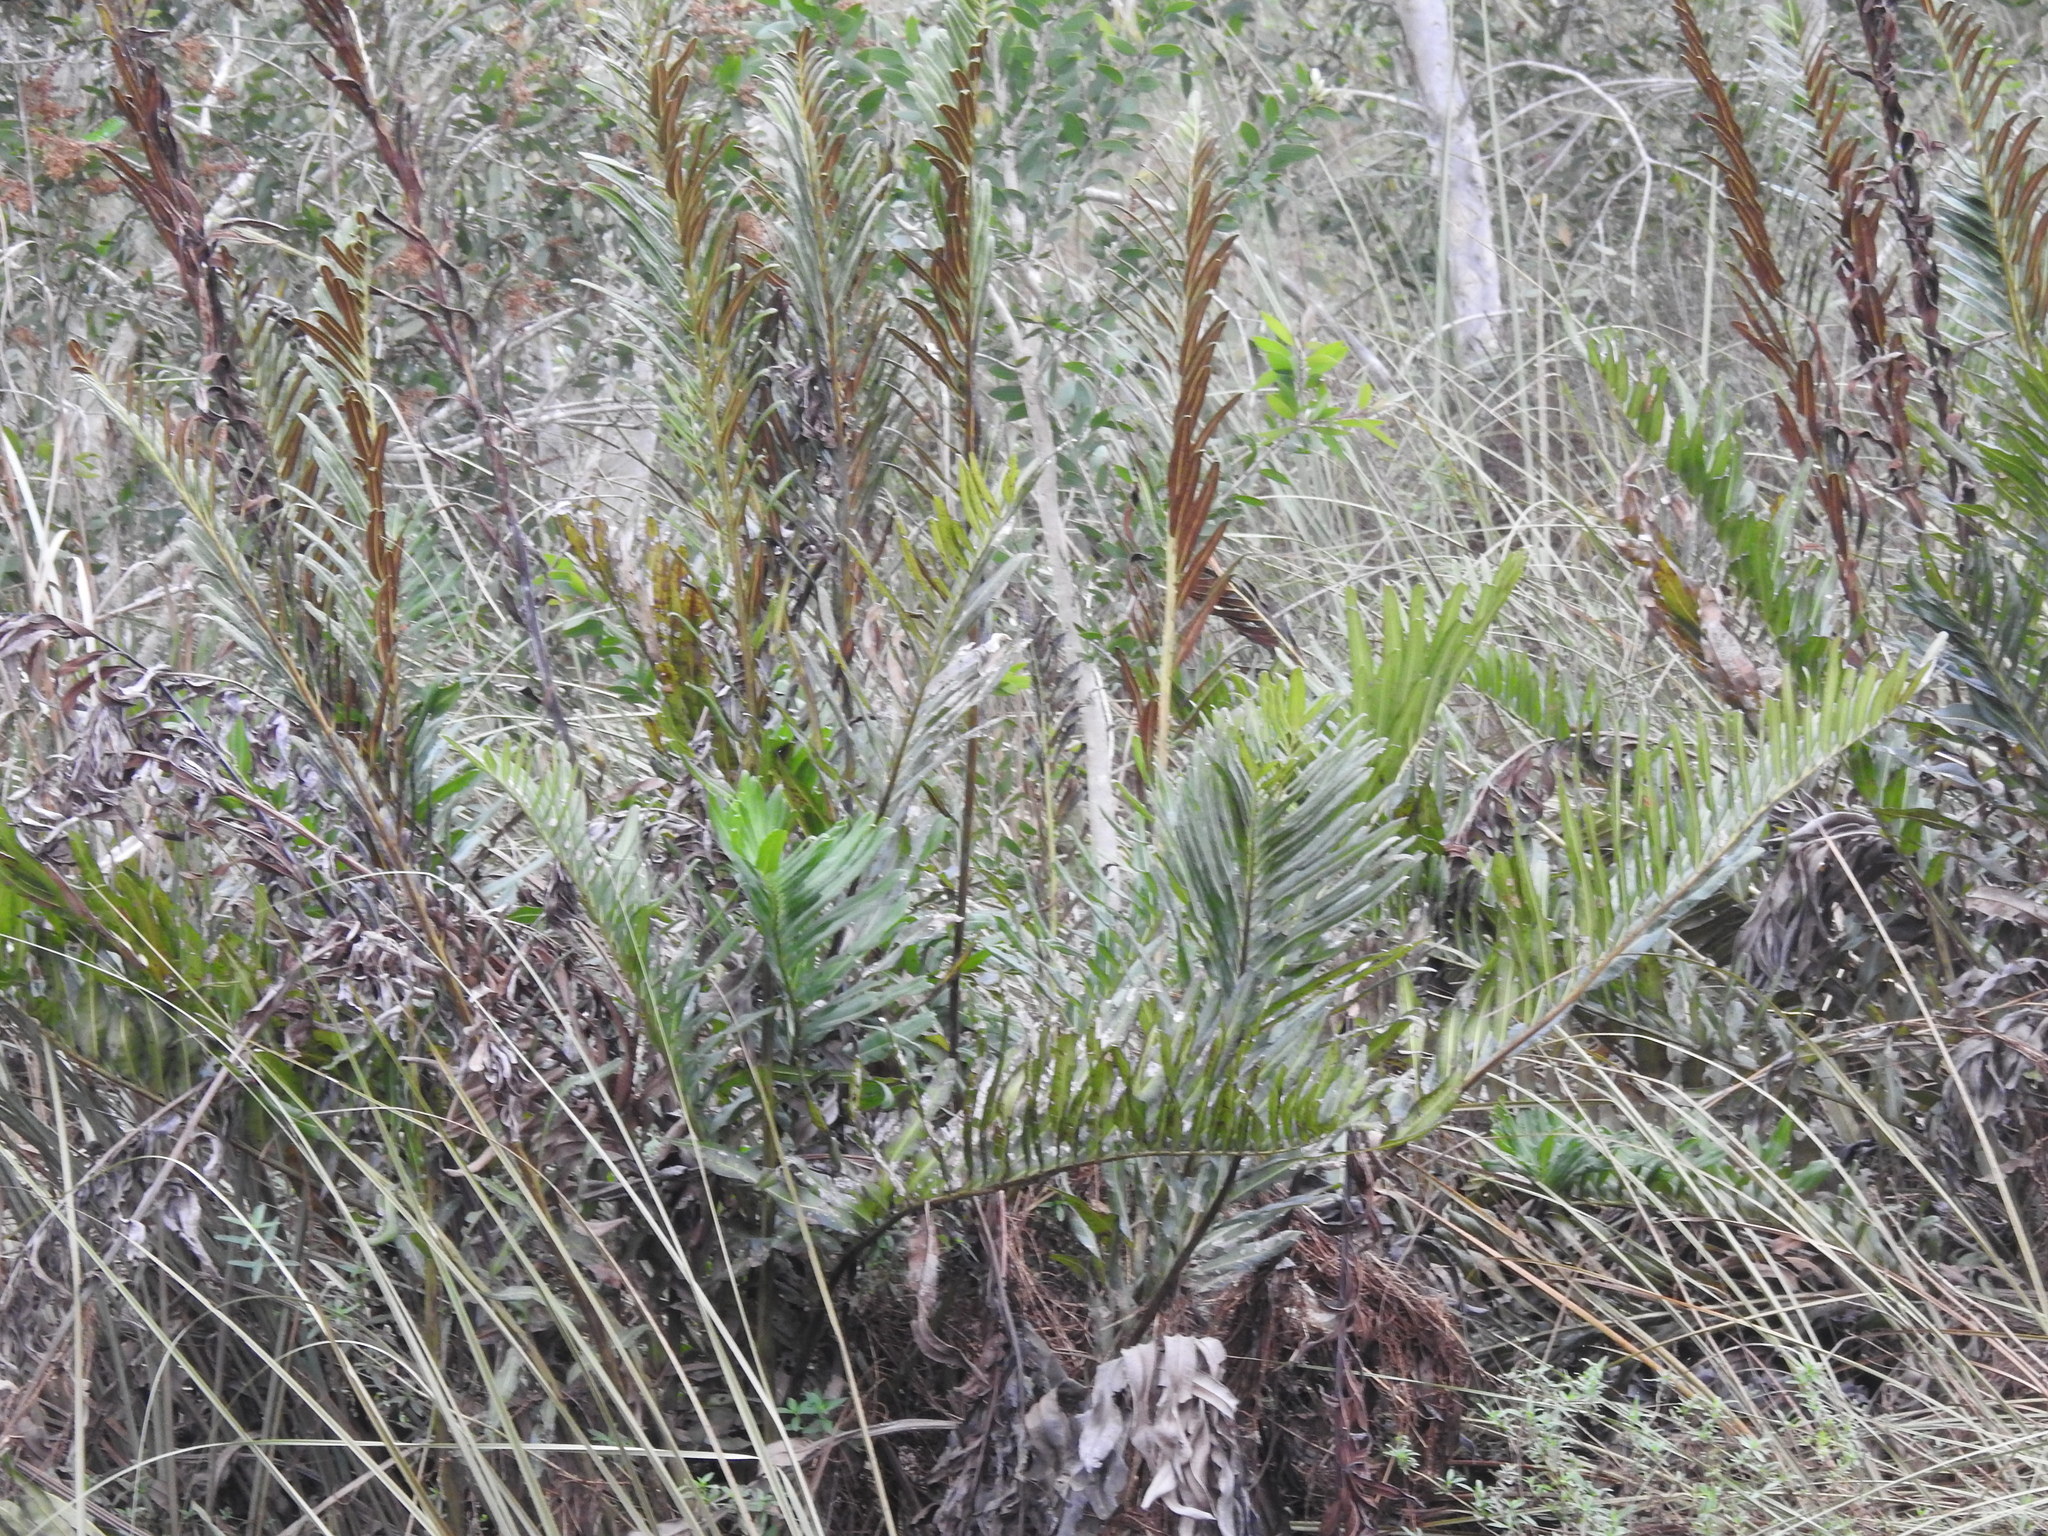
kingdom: Plantae
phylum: Tracheophyta
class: Polypodiopsida
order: Polypodiales
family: Pteridaceae
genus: Acrostichum
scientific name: Acrostichum danaeifolium
